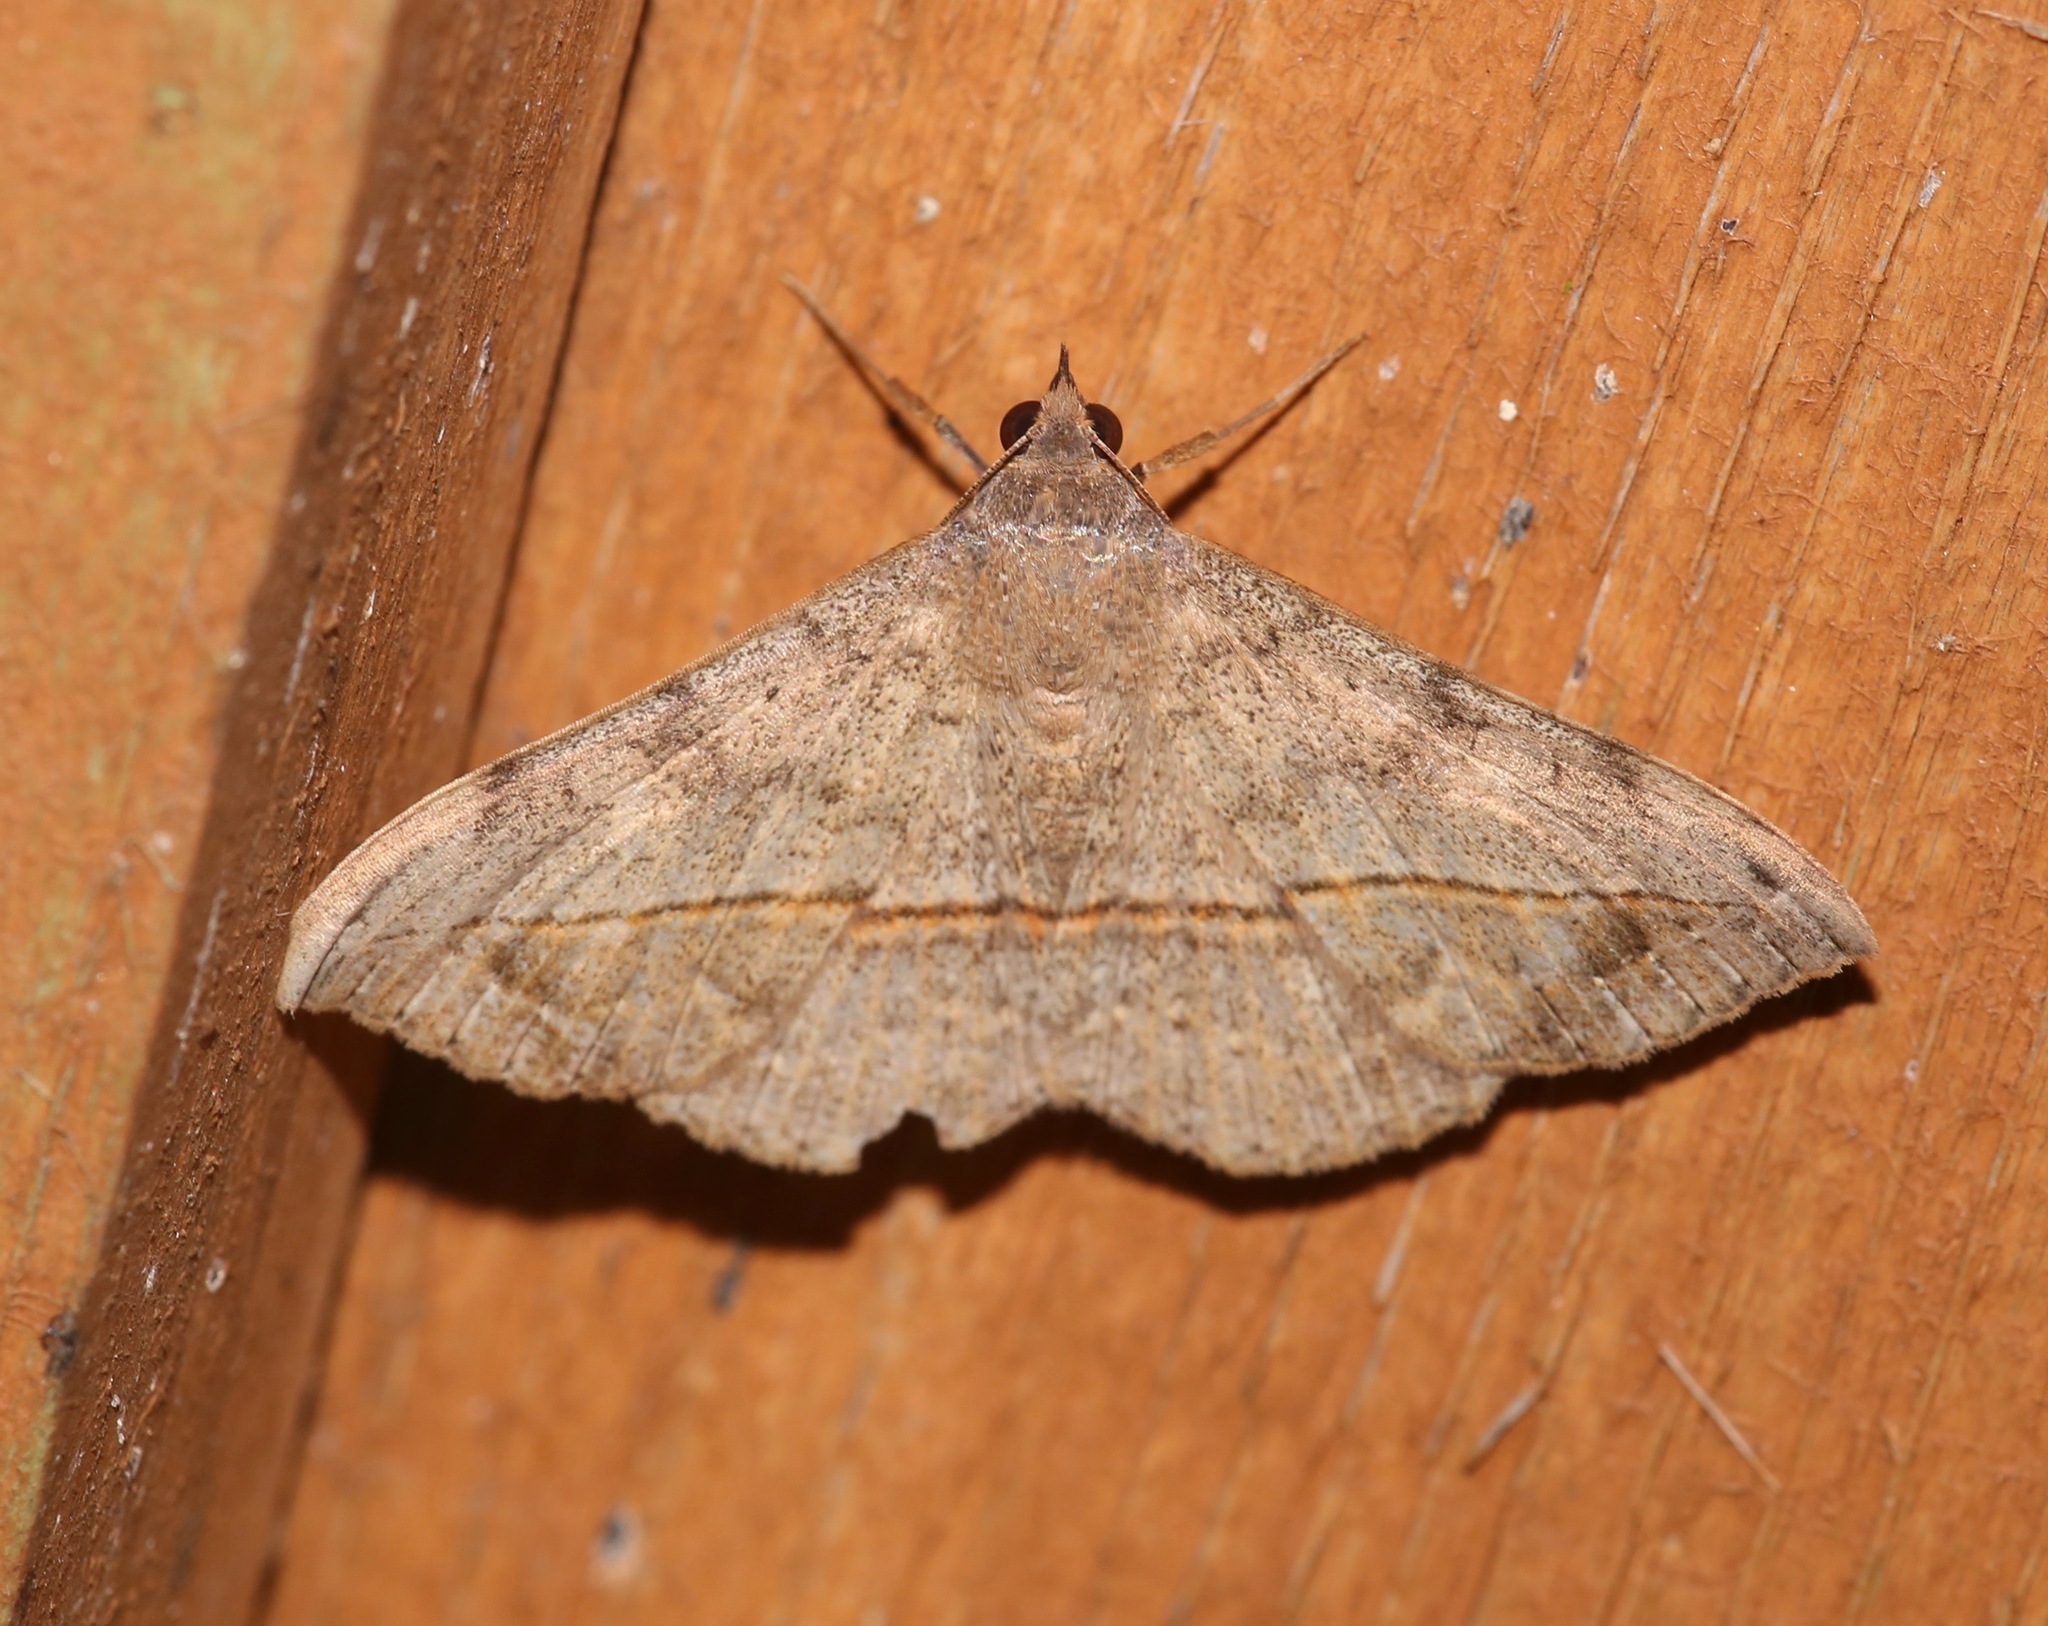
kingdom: Animalia
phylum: Arthropoda
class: Insecta
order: Lepidoptera
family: Erebidae
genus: Anticarsia
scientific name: Anticarsia gemmatalis
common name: Cutworm moth
